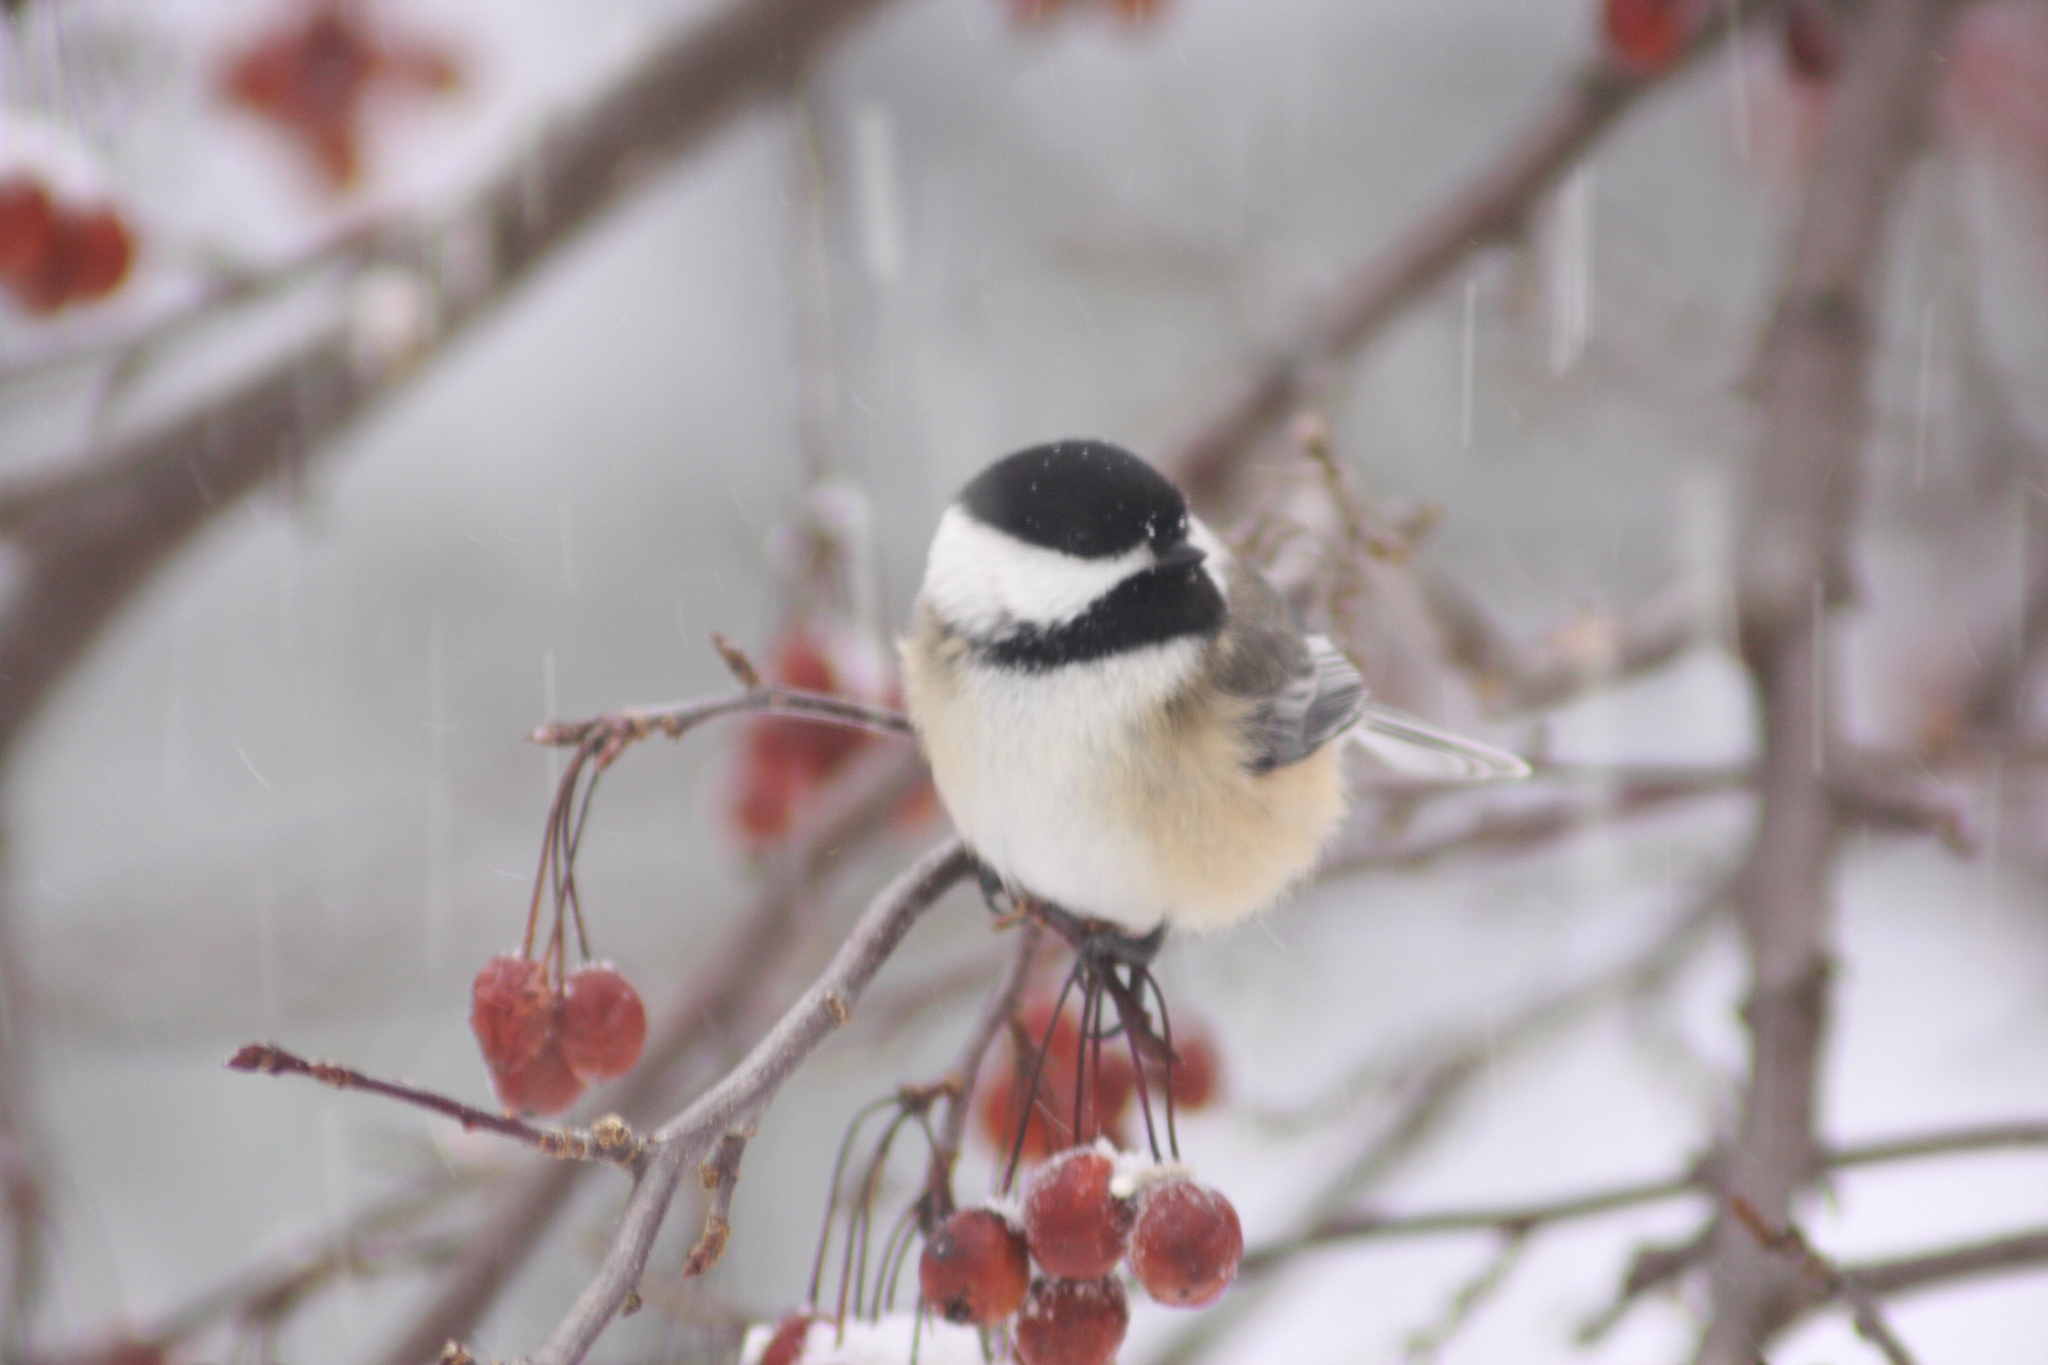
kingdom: Animalia
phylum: Chordata
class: Aves
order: Passeriformes
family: Paridae
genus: Poecile
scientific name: Poecile atricapillus
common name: Black-capped chickadee
